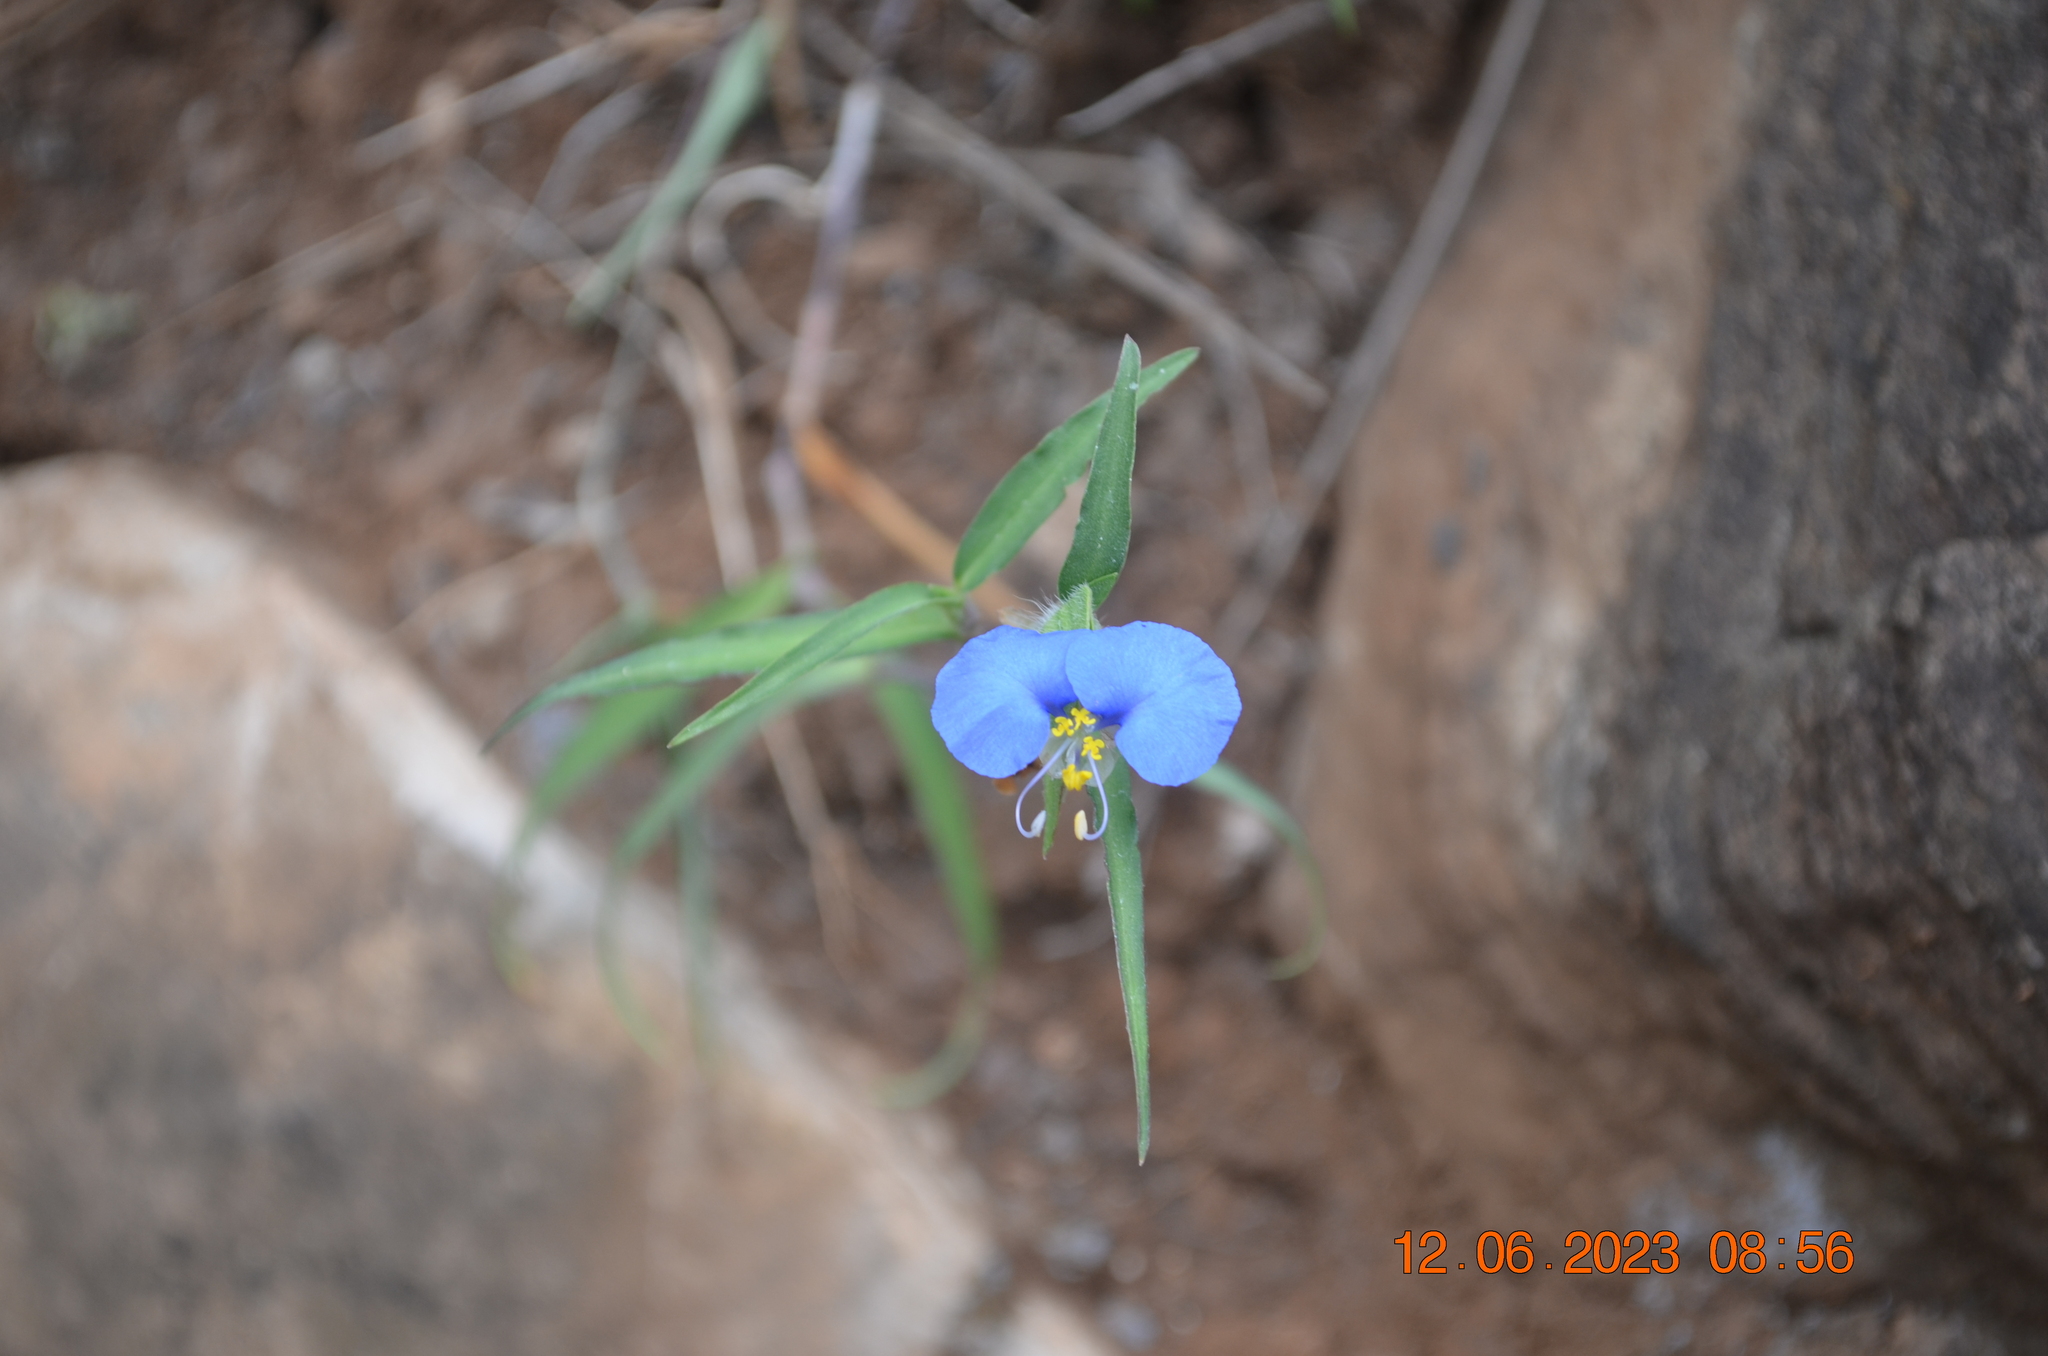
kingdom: Plantae
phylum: Tracheophyta
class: Liliopsida
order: Commelinales
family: Commelinaceae
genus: Commelina
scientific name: Commelina erecta
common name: Blousel blommetjie
